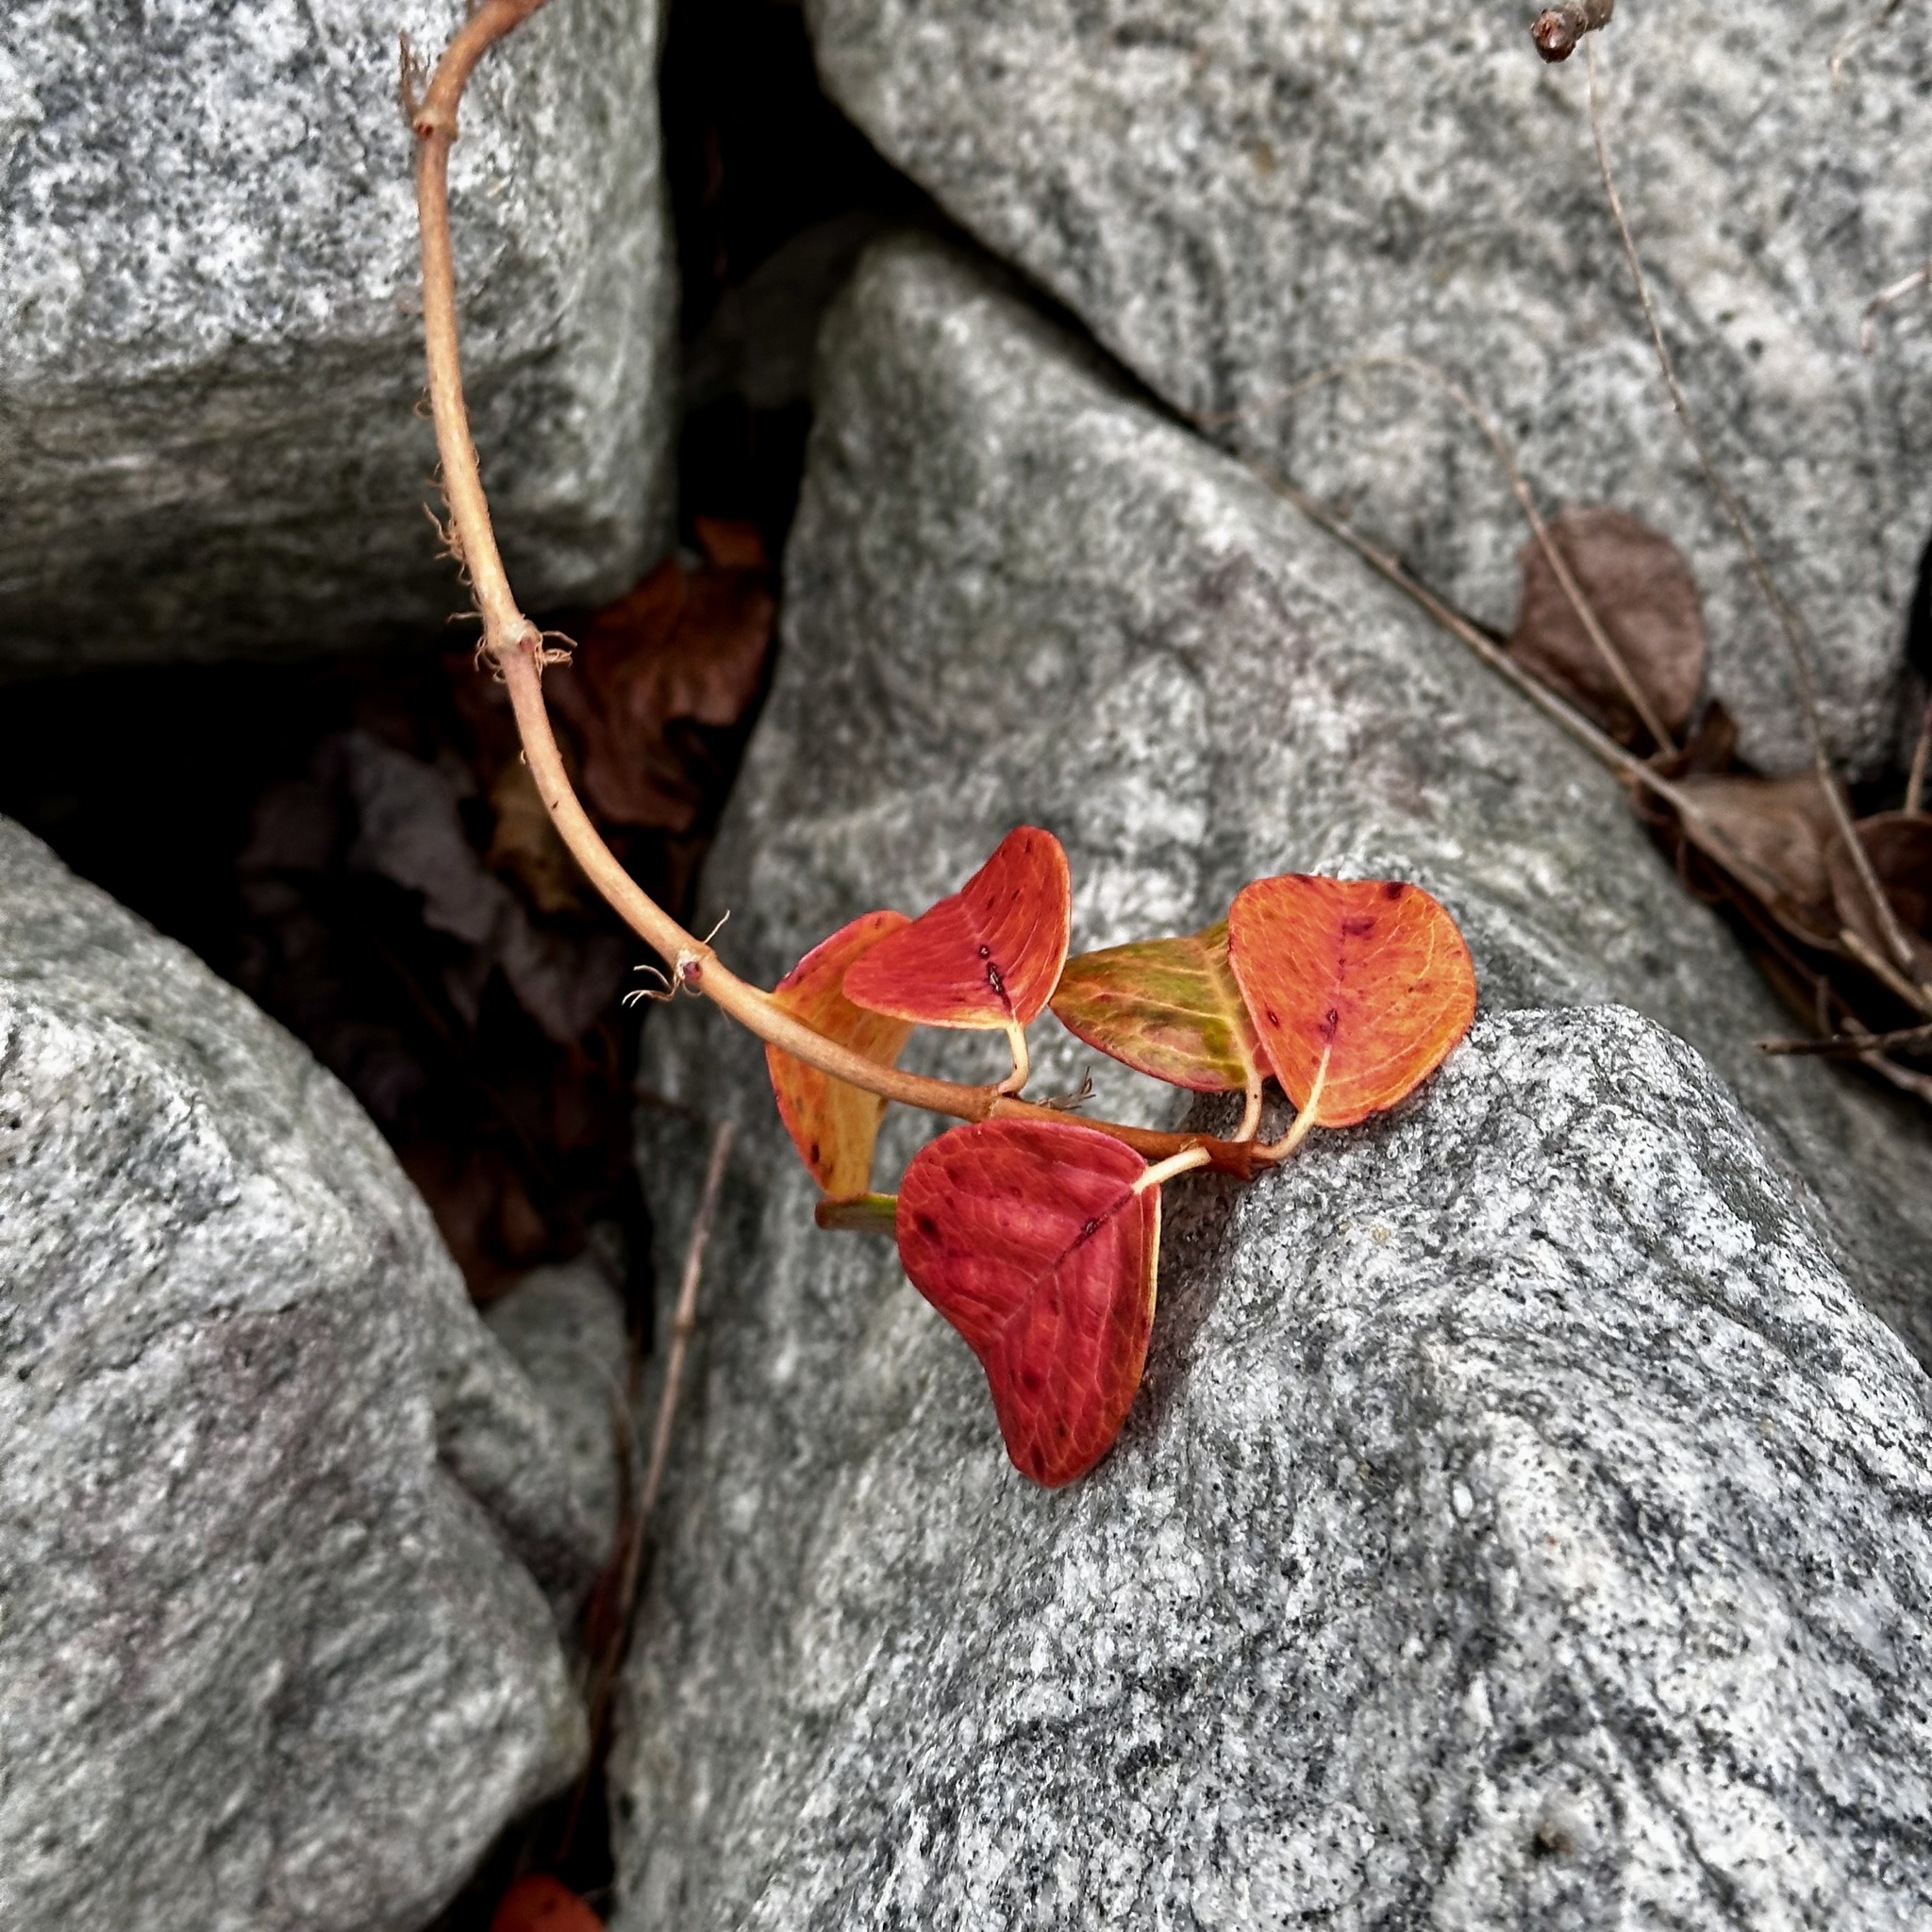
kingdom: Plantae
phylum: Tracheophyta
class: Magnoliopsida
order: Cornales
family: Hydrangeaceae
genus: Hydrangea
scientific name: Hydrangea barbara
